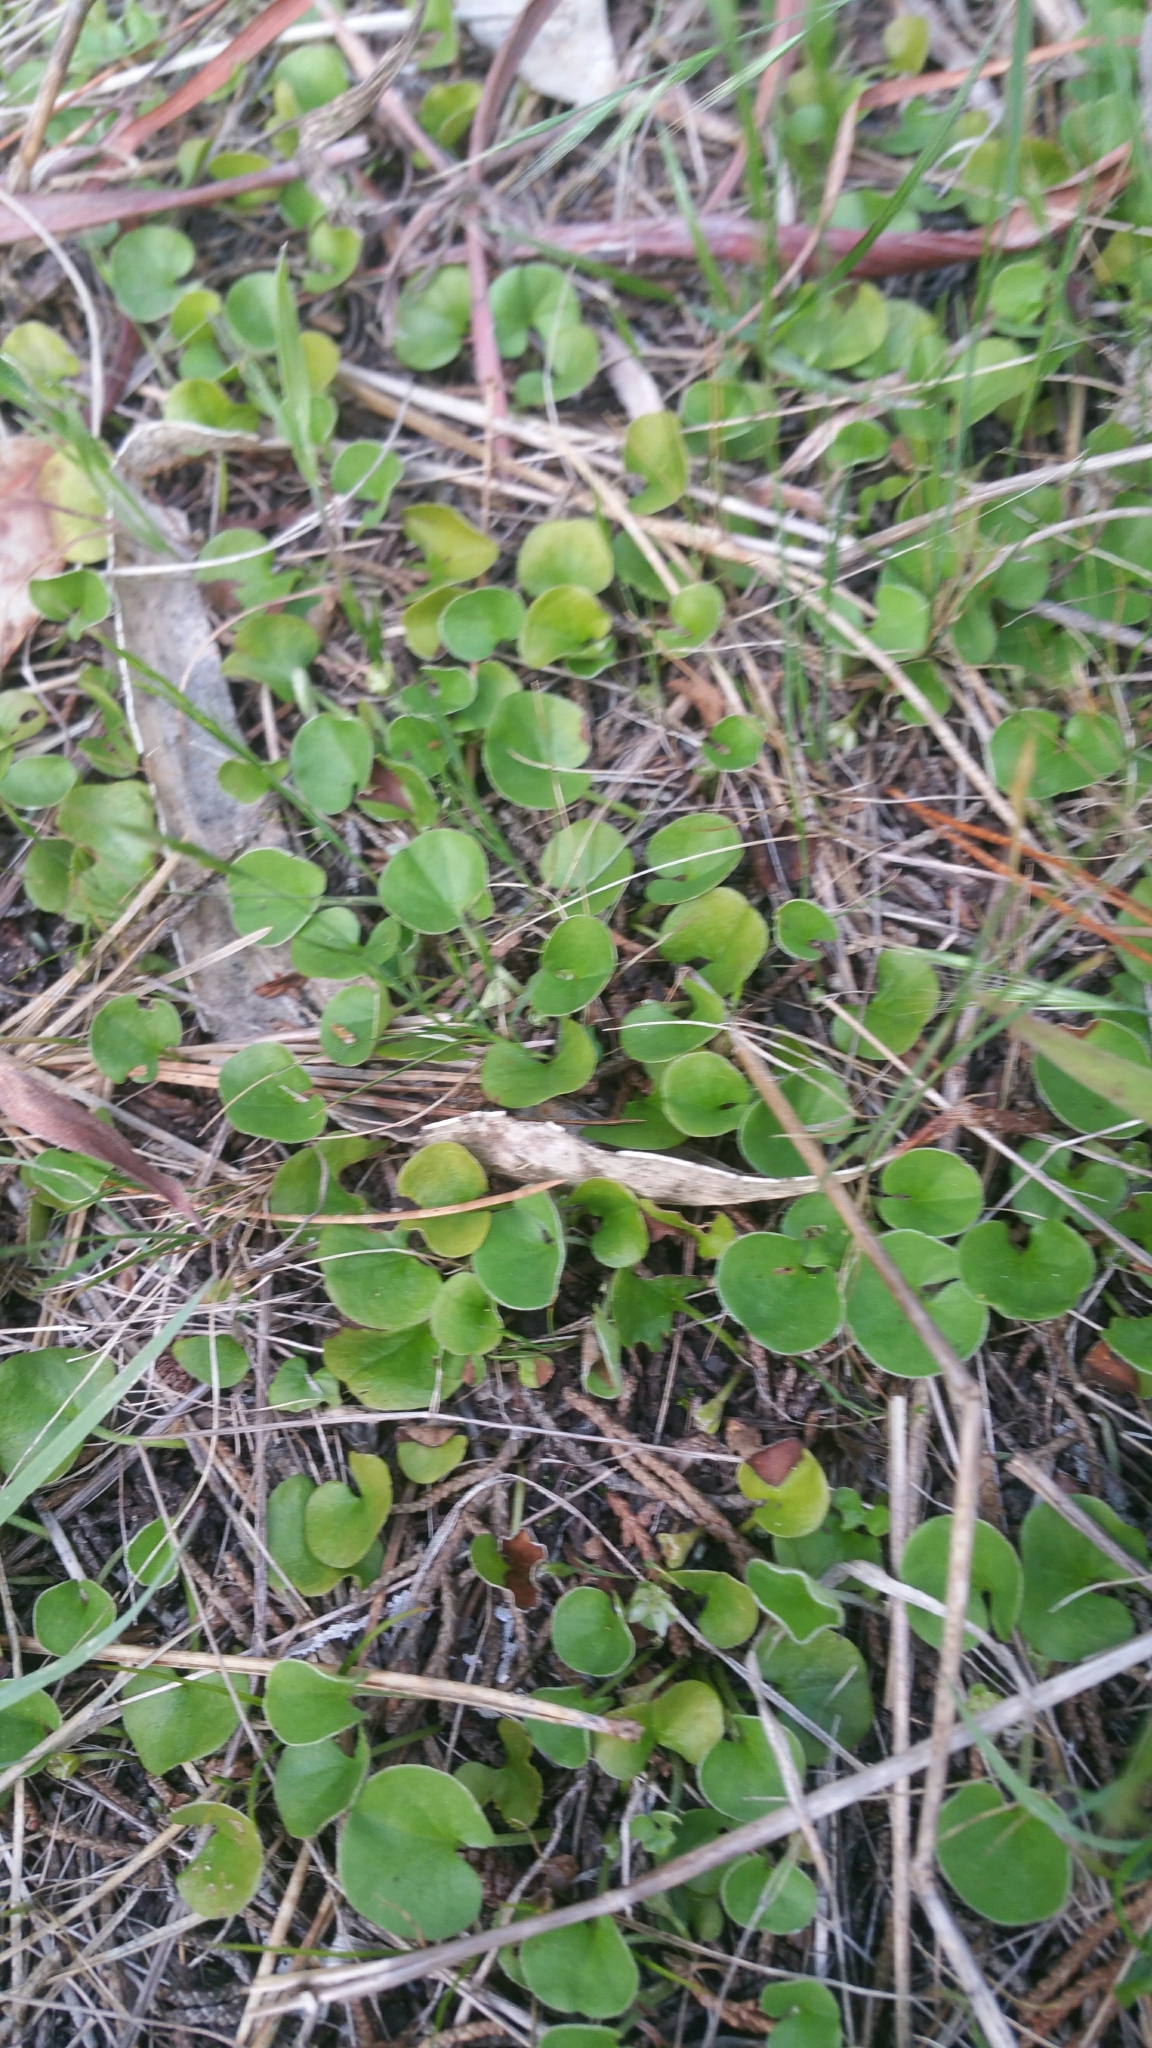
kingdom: Plantae
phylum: Tracheophyta
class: Magnoliopsida
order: Solanales
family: Convolvulaceae
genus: Dichondra
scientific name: Dichondra donelliana
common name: California ponysfoot
